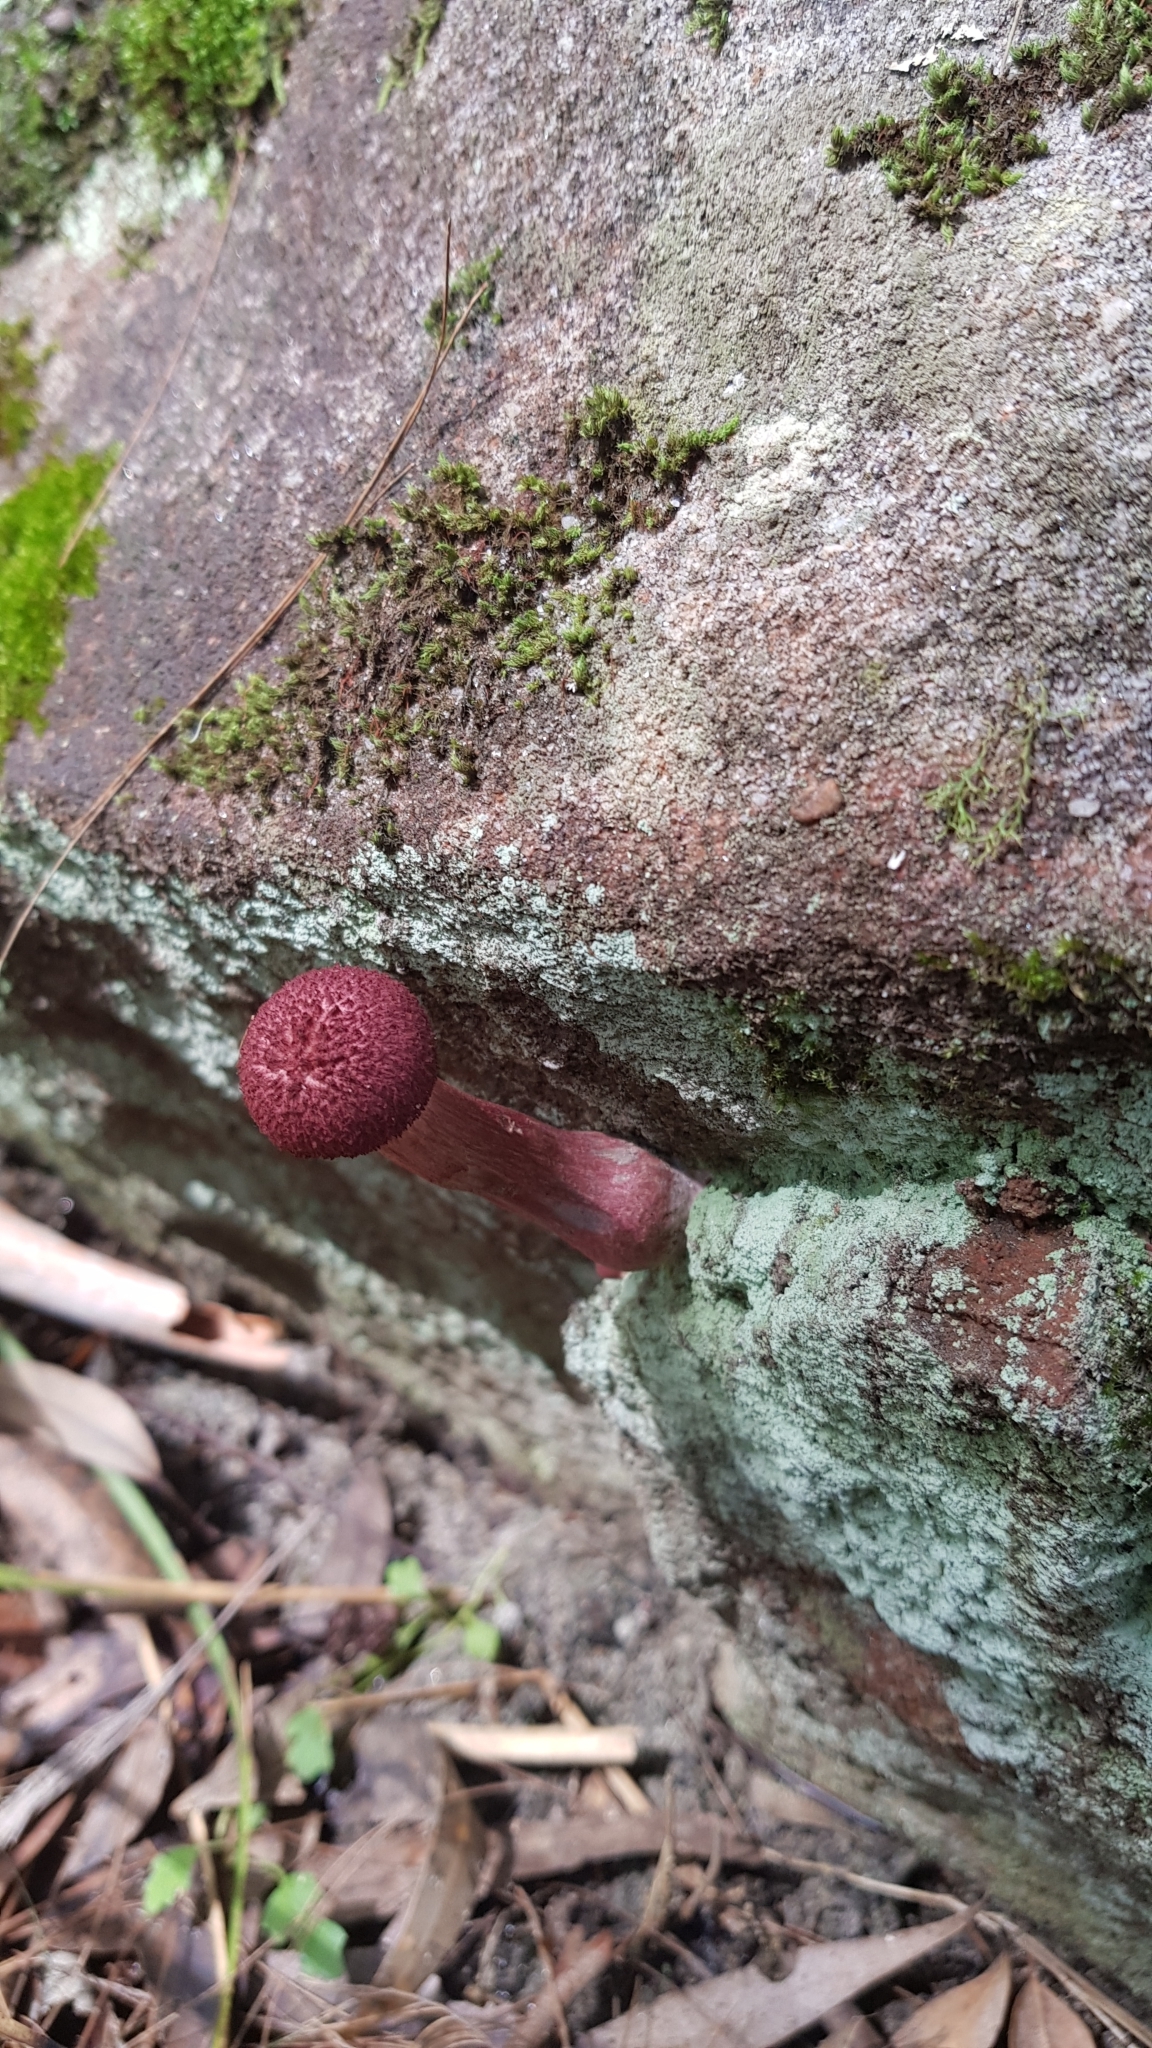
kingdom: Fungi
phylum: Basidiomycota
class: Agaricomycetes
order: Boletales
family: Boletaceae
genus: Boletellus
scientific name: Boletellus emodensis
